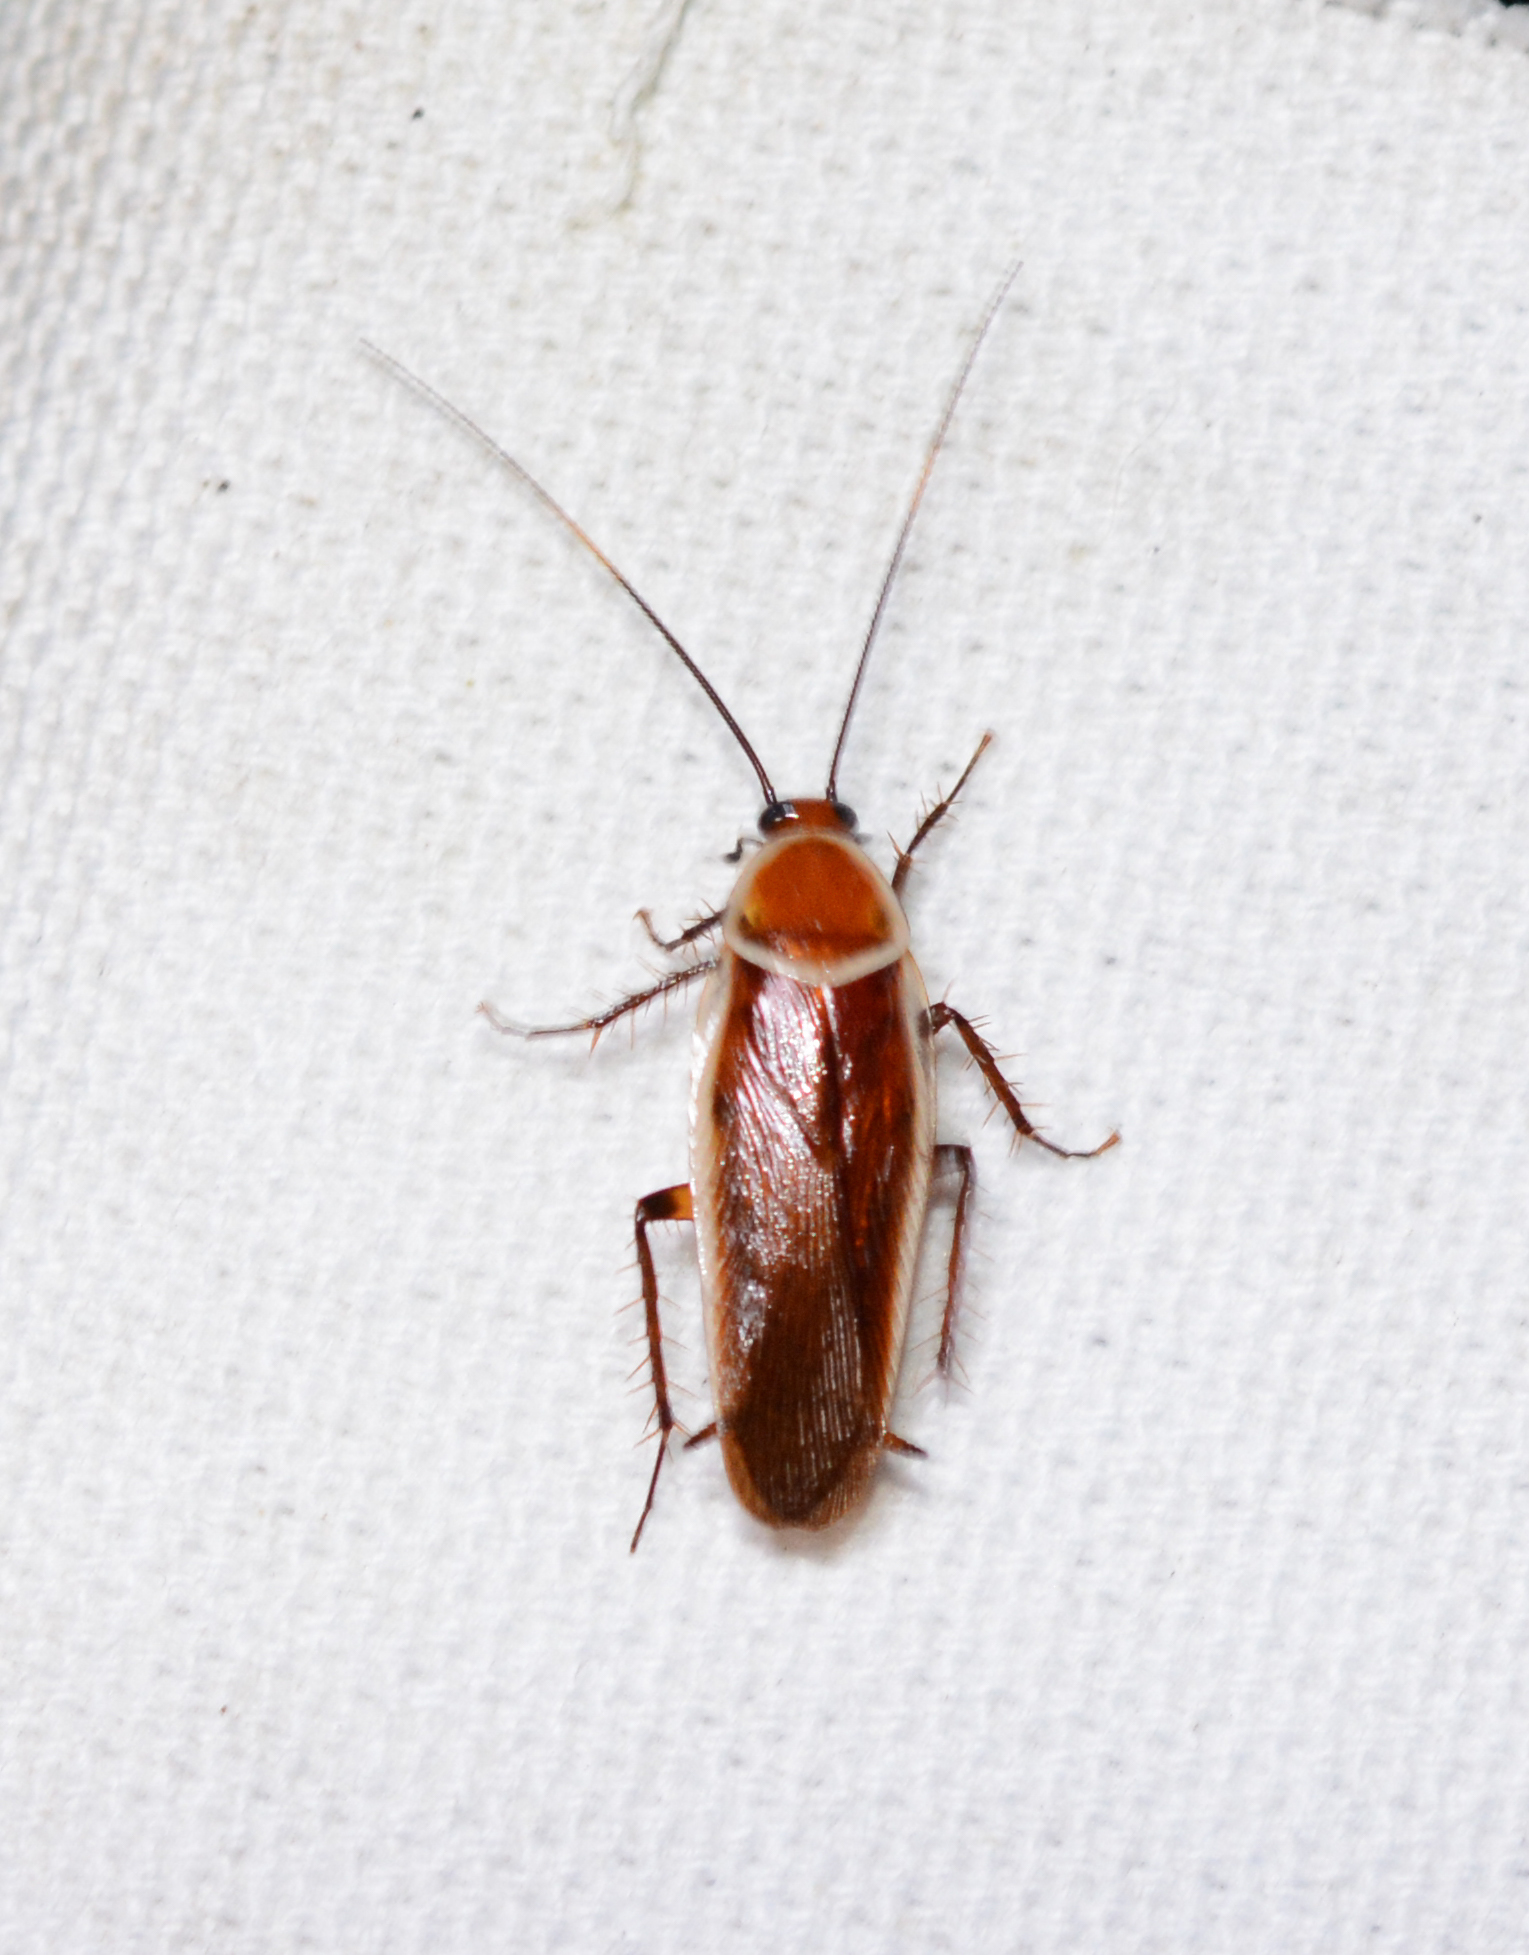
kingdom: Animalia
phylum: Arthropoda
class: Insecta
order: Blattodea
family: Ectobiidae
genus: Pseudomops
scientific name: Pseudomops septentrionalis
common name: Pale-bordered field cockroach
